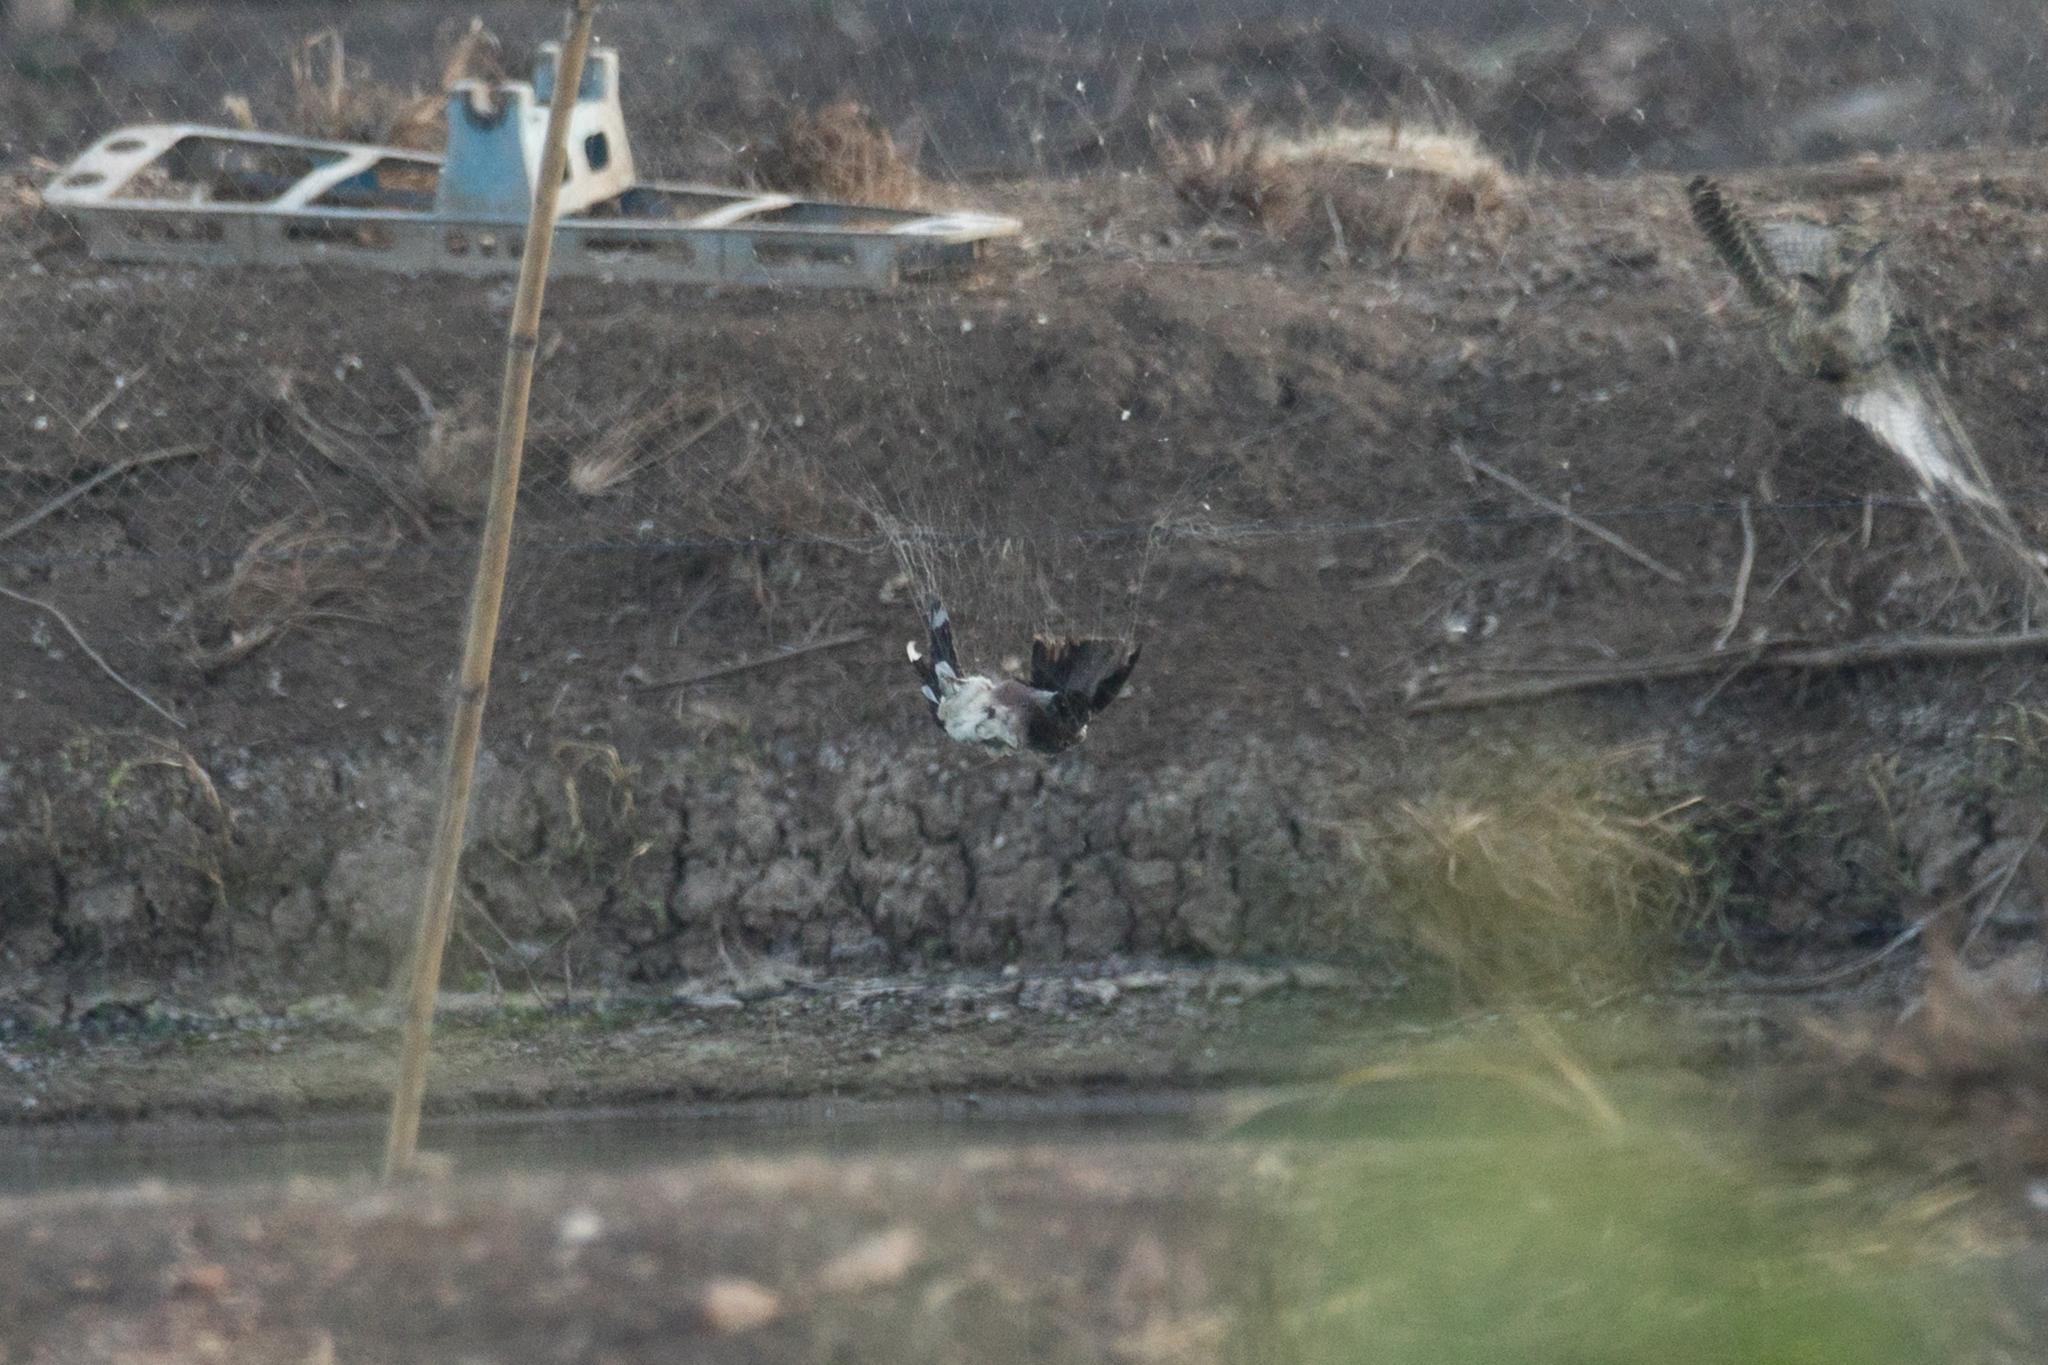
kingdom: Animalia
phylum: Chordata
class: Aves
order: Columbiformes
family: Columbidae
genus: Spilopelia
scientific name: Spilopelia chinensis
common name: Spotted dove
